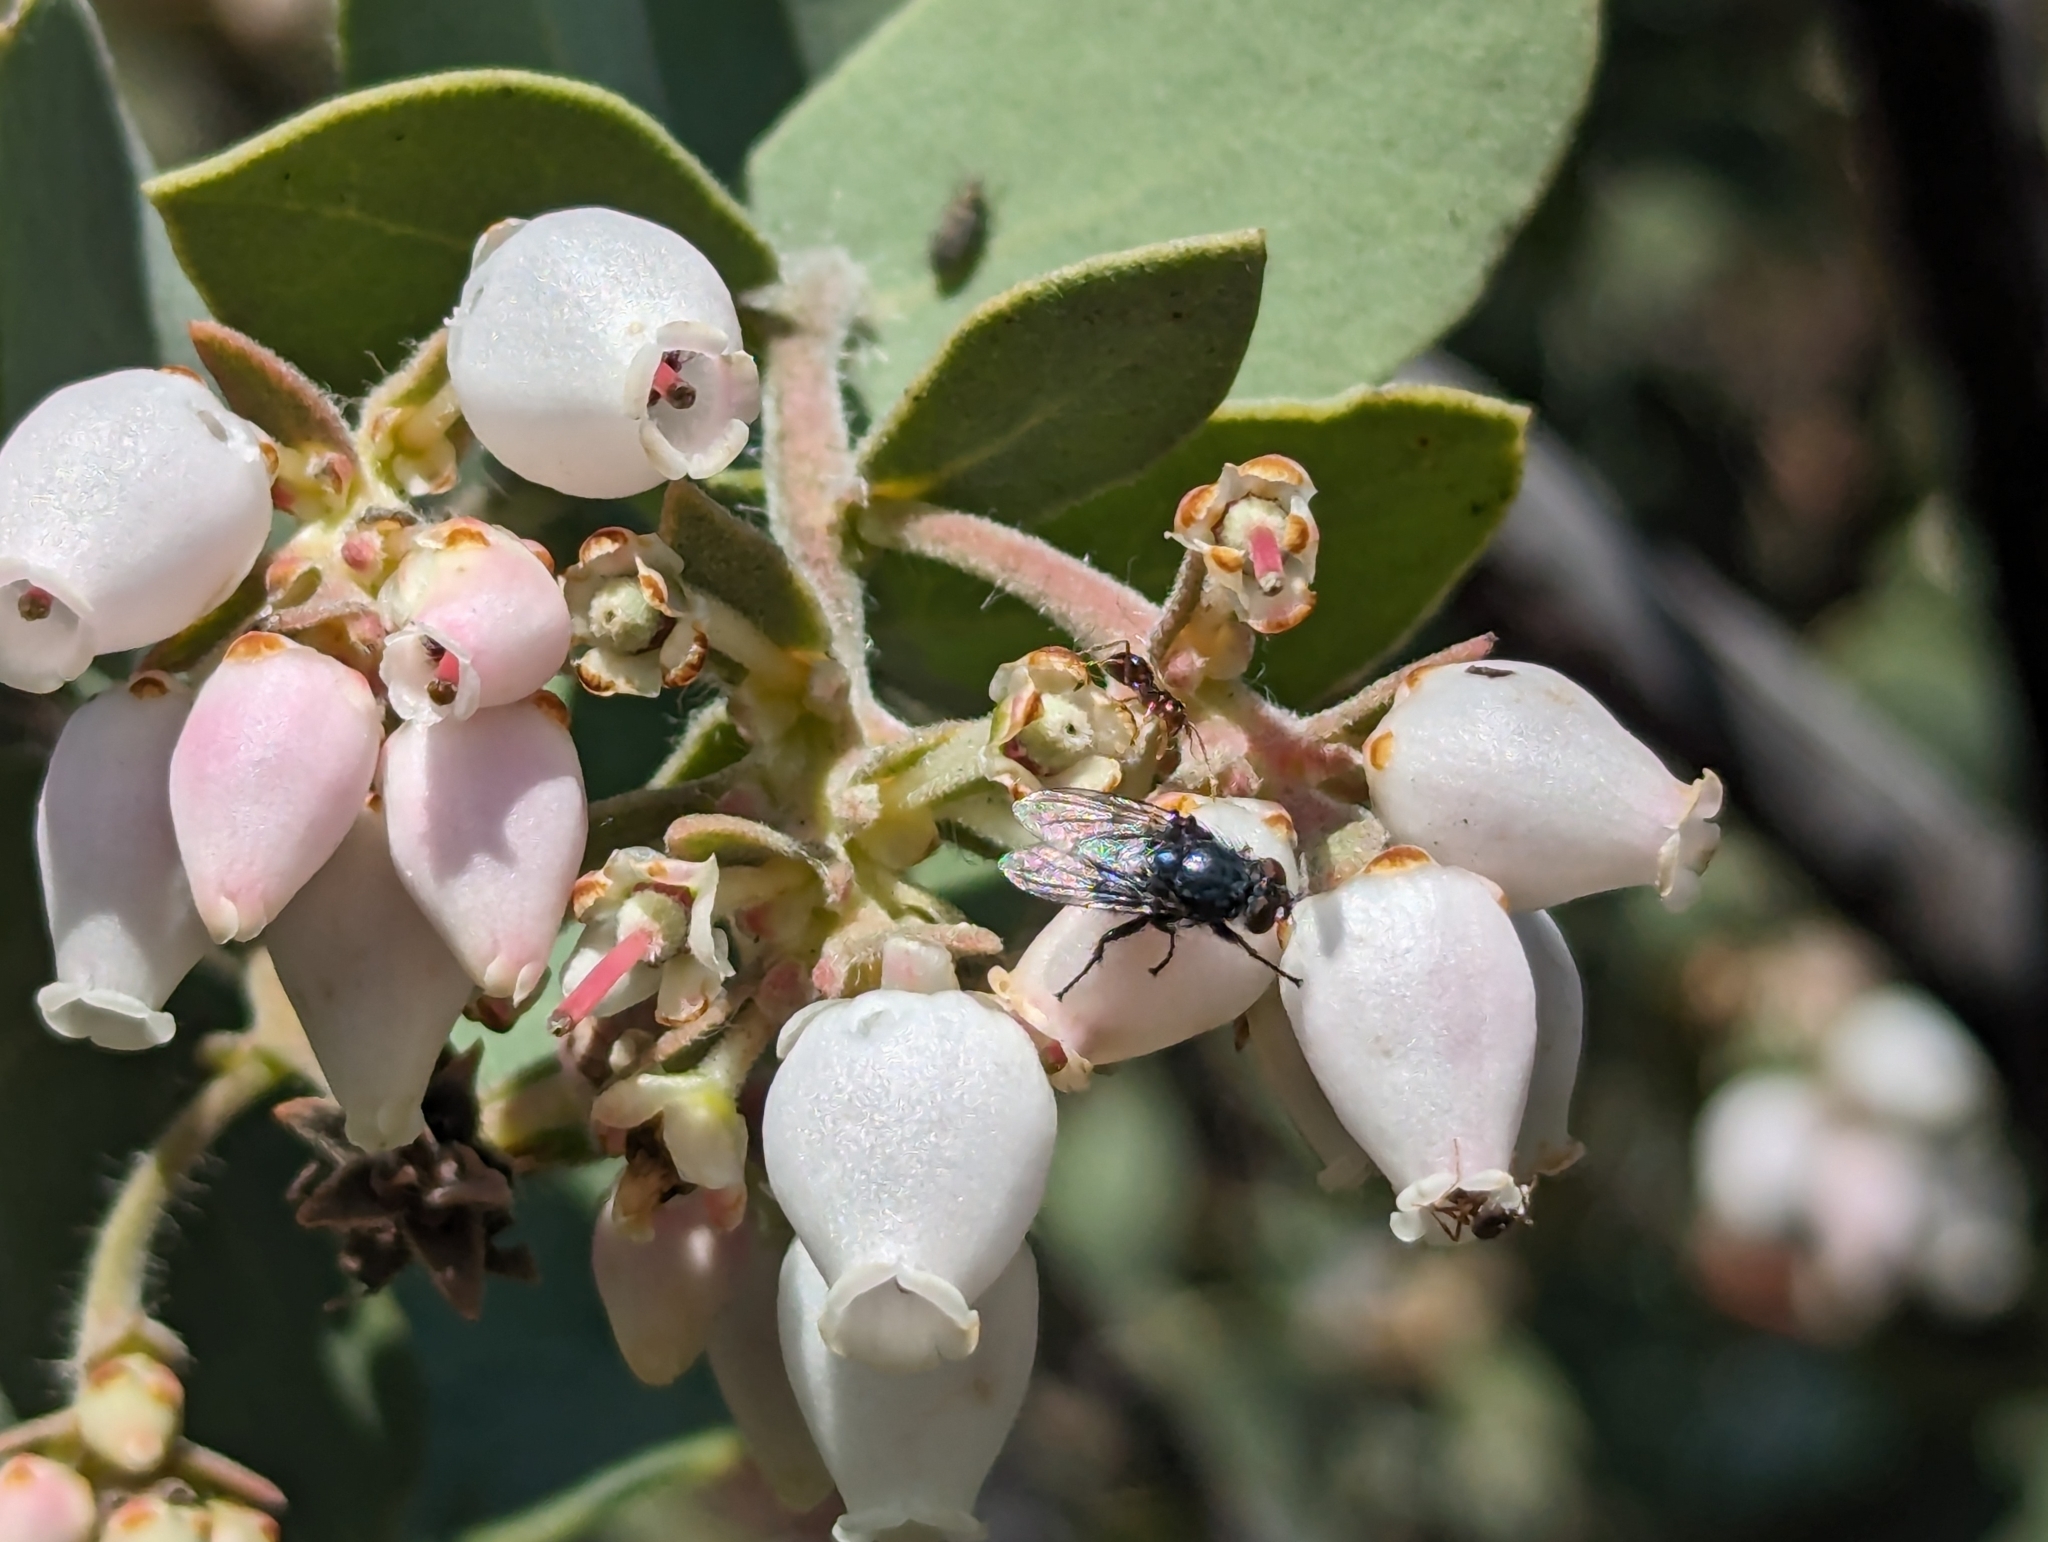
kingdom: Animalia
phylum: Arthropoda
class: Insecta
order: Hymenoptera
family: Formicidae
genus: Prenolepis
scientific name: Prenolepis imparis
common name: Small honey ant
